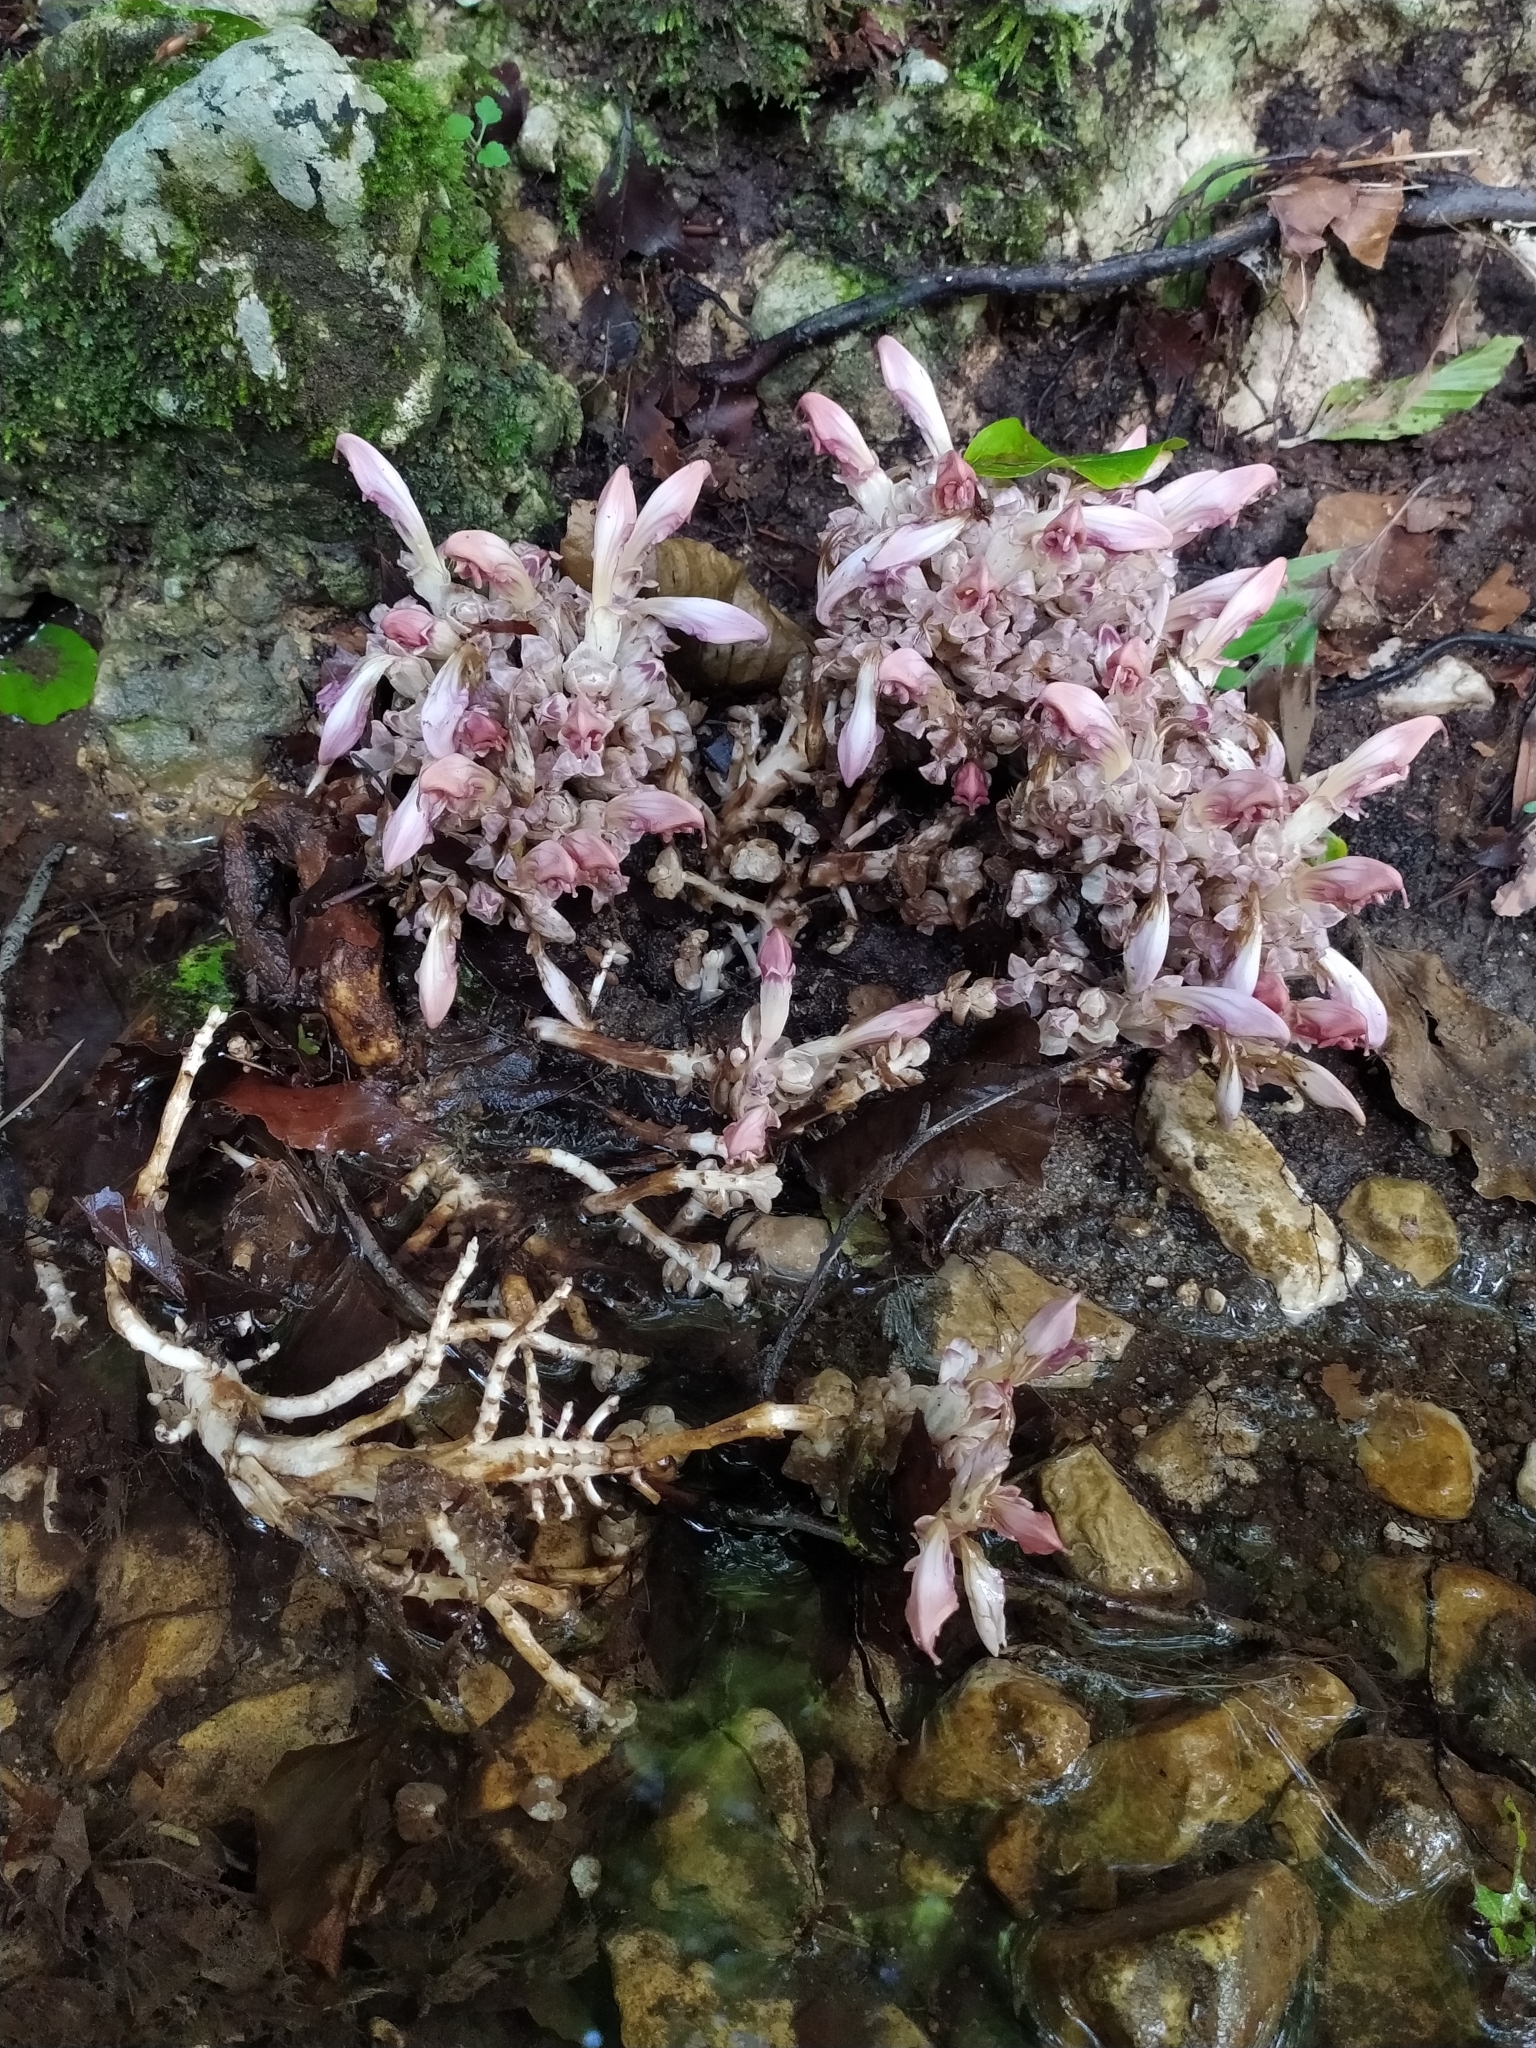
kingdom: Plantae
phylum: Tracheophyta
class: Magnoliopsida
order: Lamiales
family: Orobanchaceae
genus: Lathraea
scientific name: Lathraea clandestina
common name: Purple toothwort
